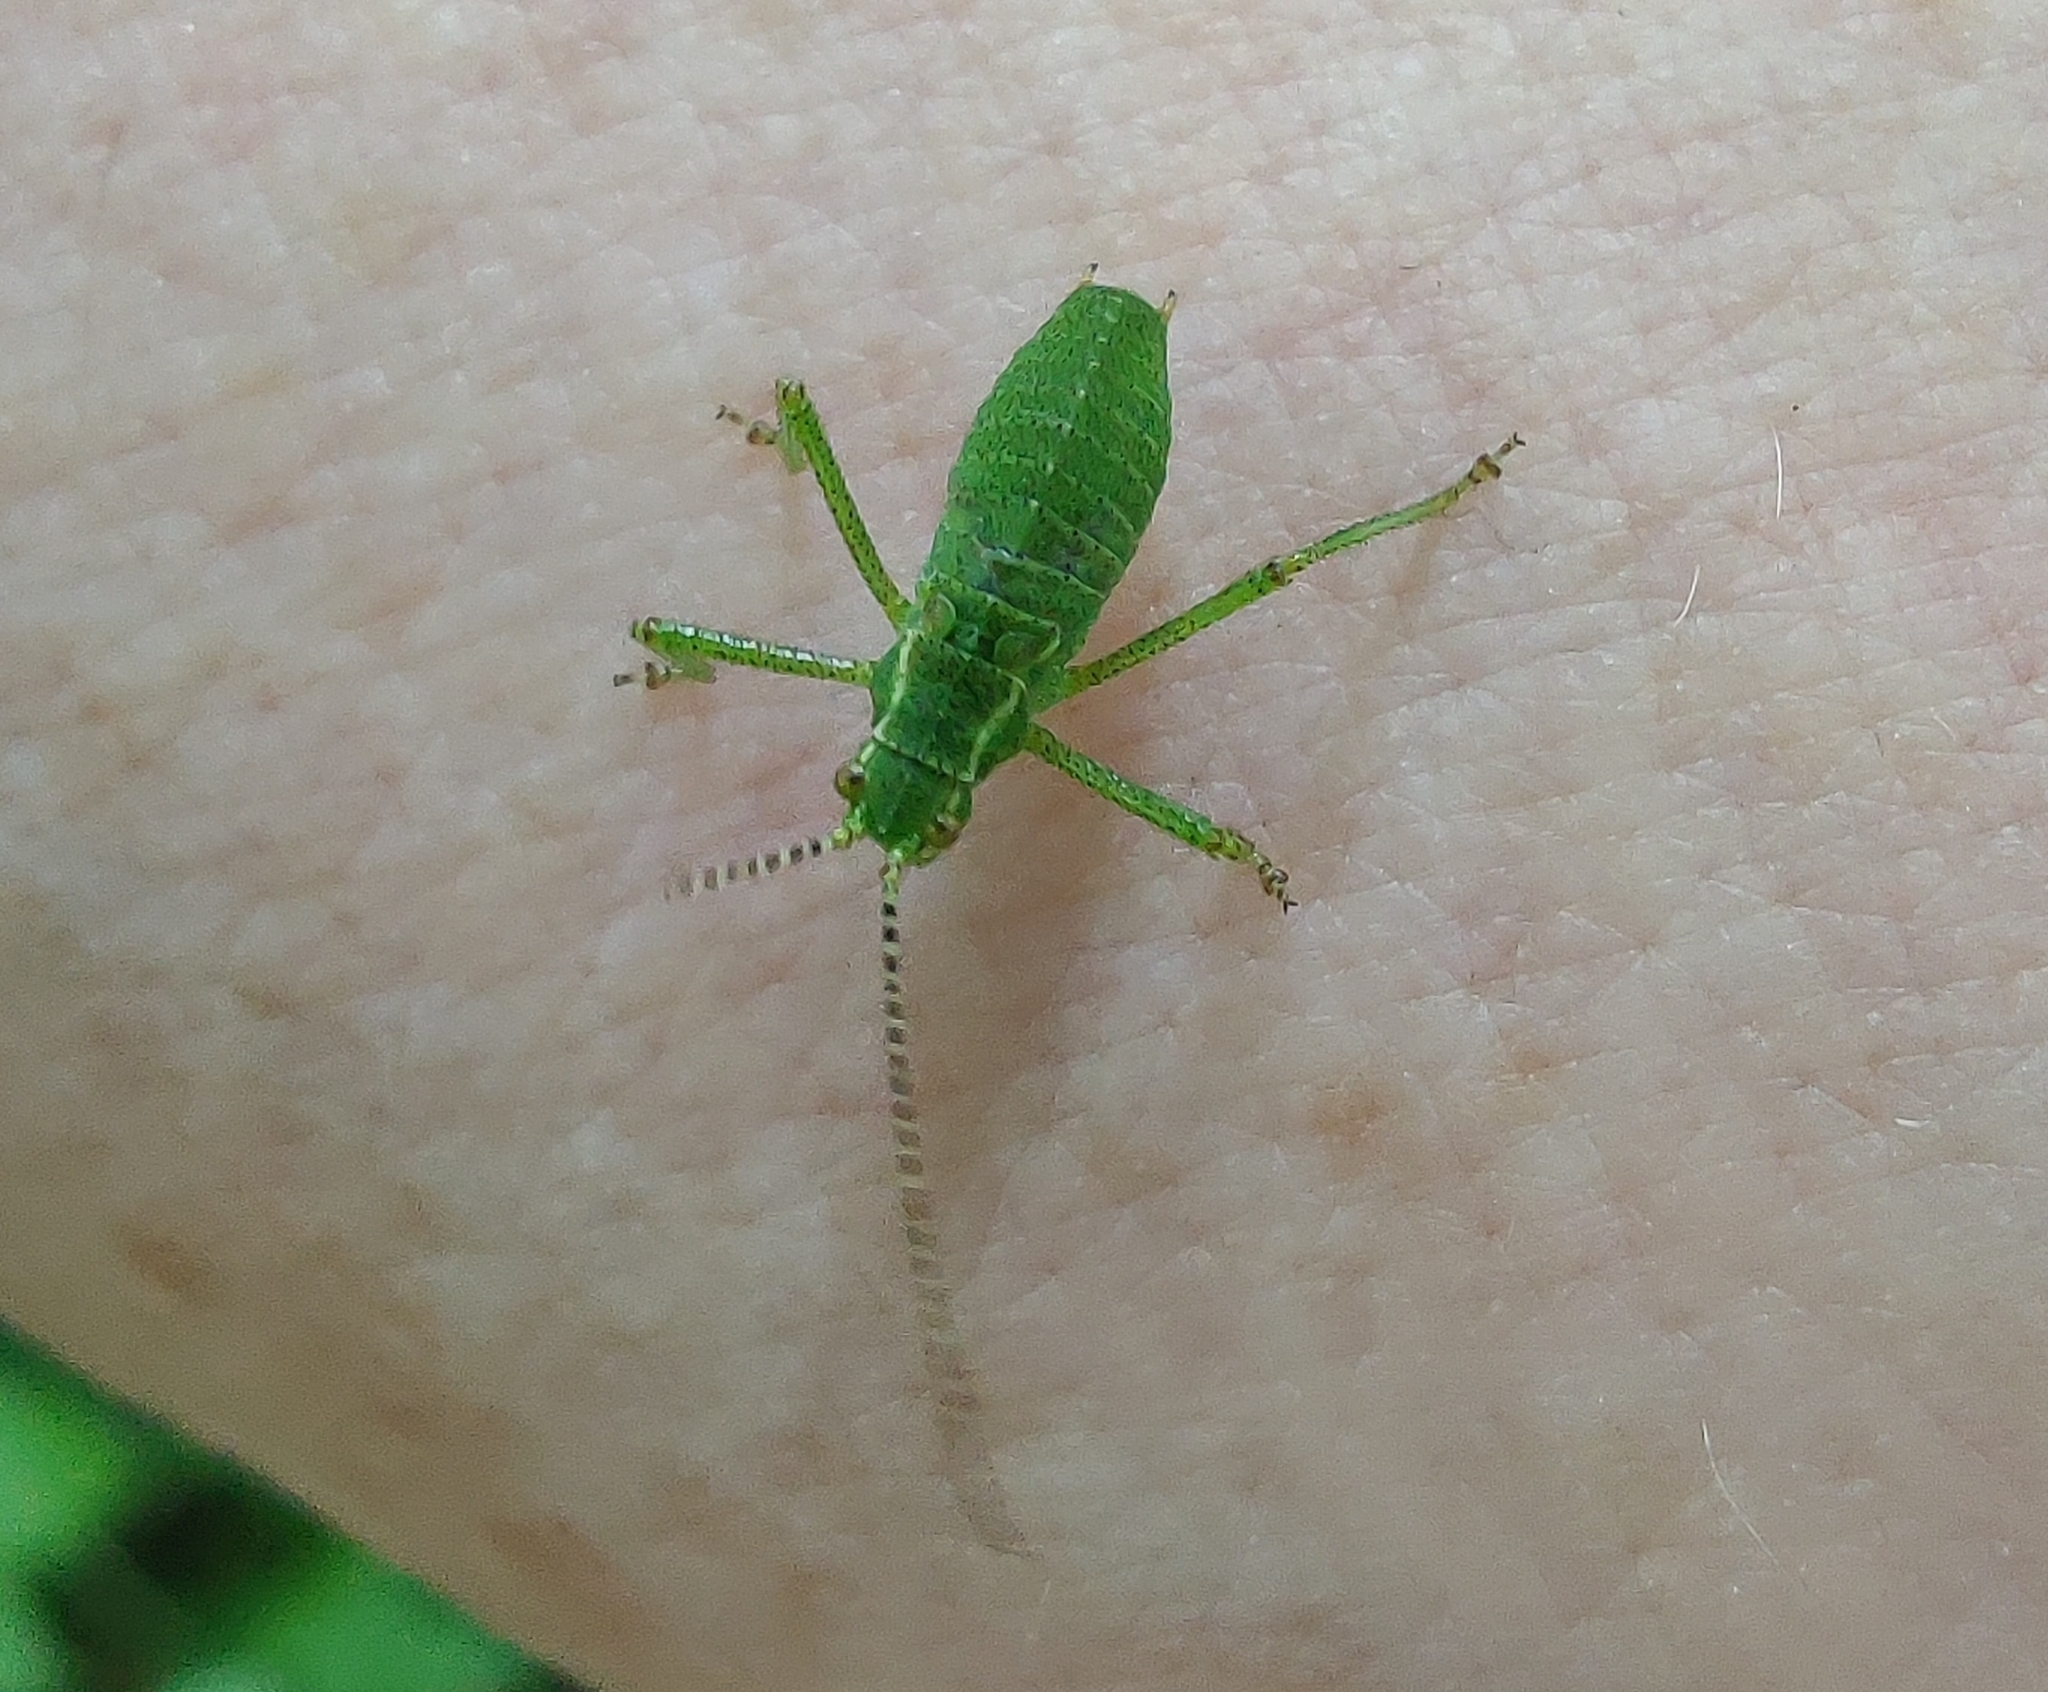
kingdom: Animalia
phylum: Arthropoda
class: Insecta
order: Orthoptera
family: Tettigoniidae
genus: Leptophyes
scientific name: Leptophyes punctatissima
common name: Speckled bush-cricket
